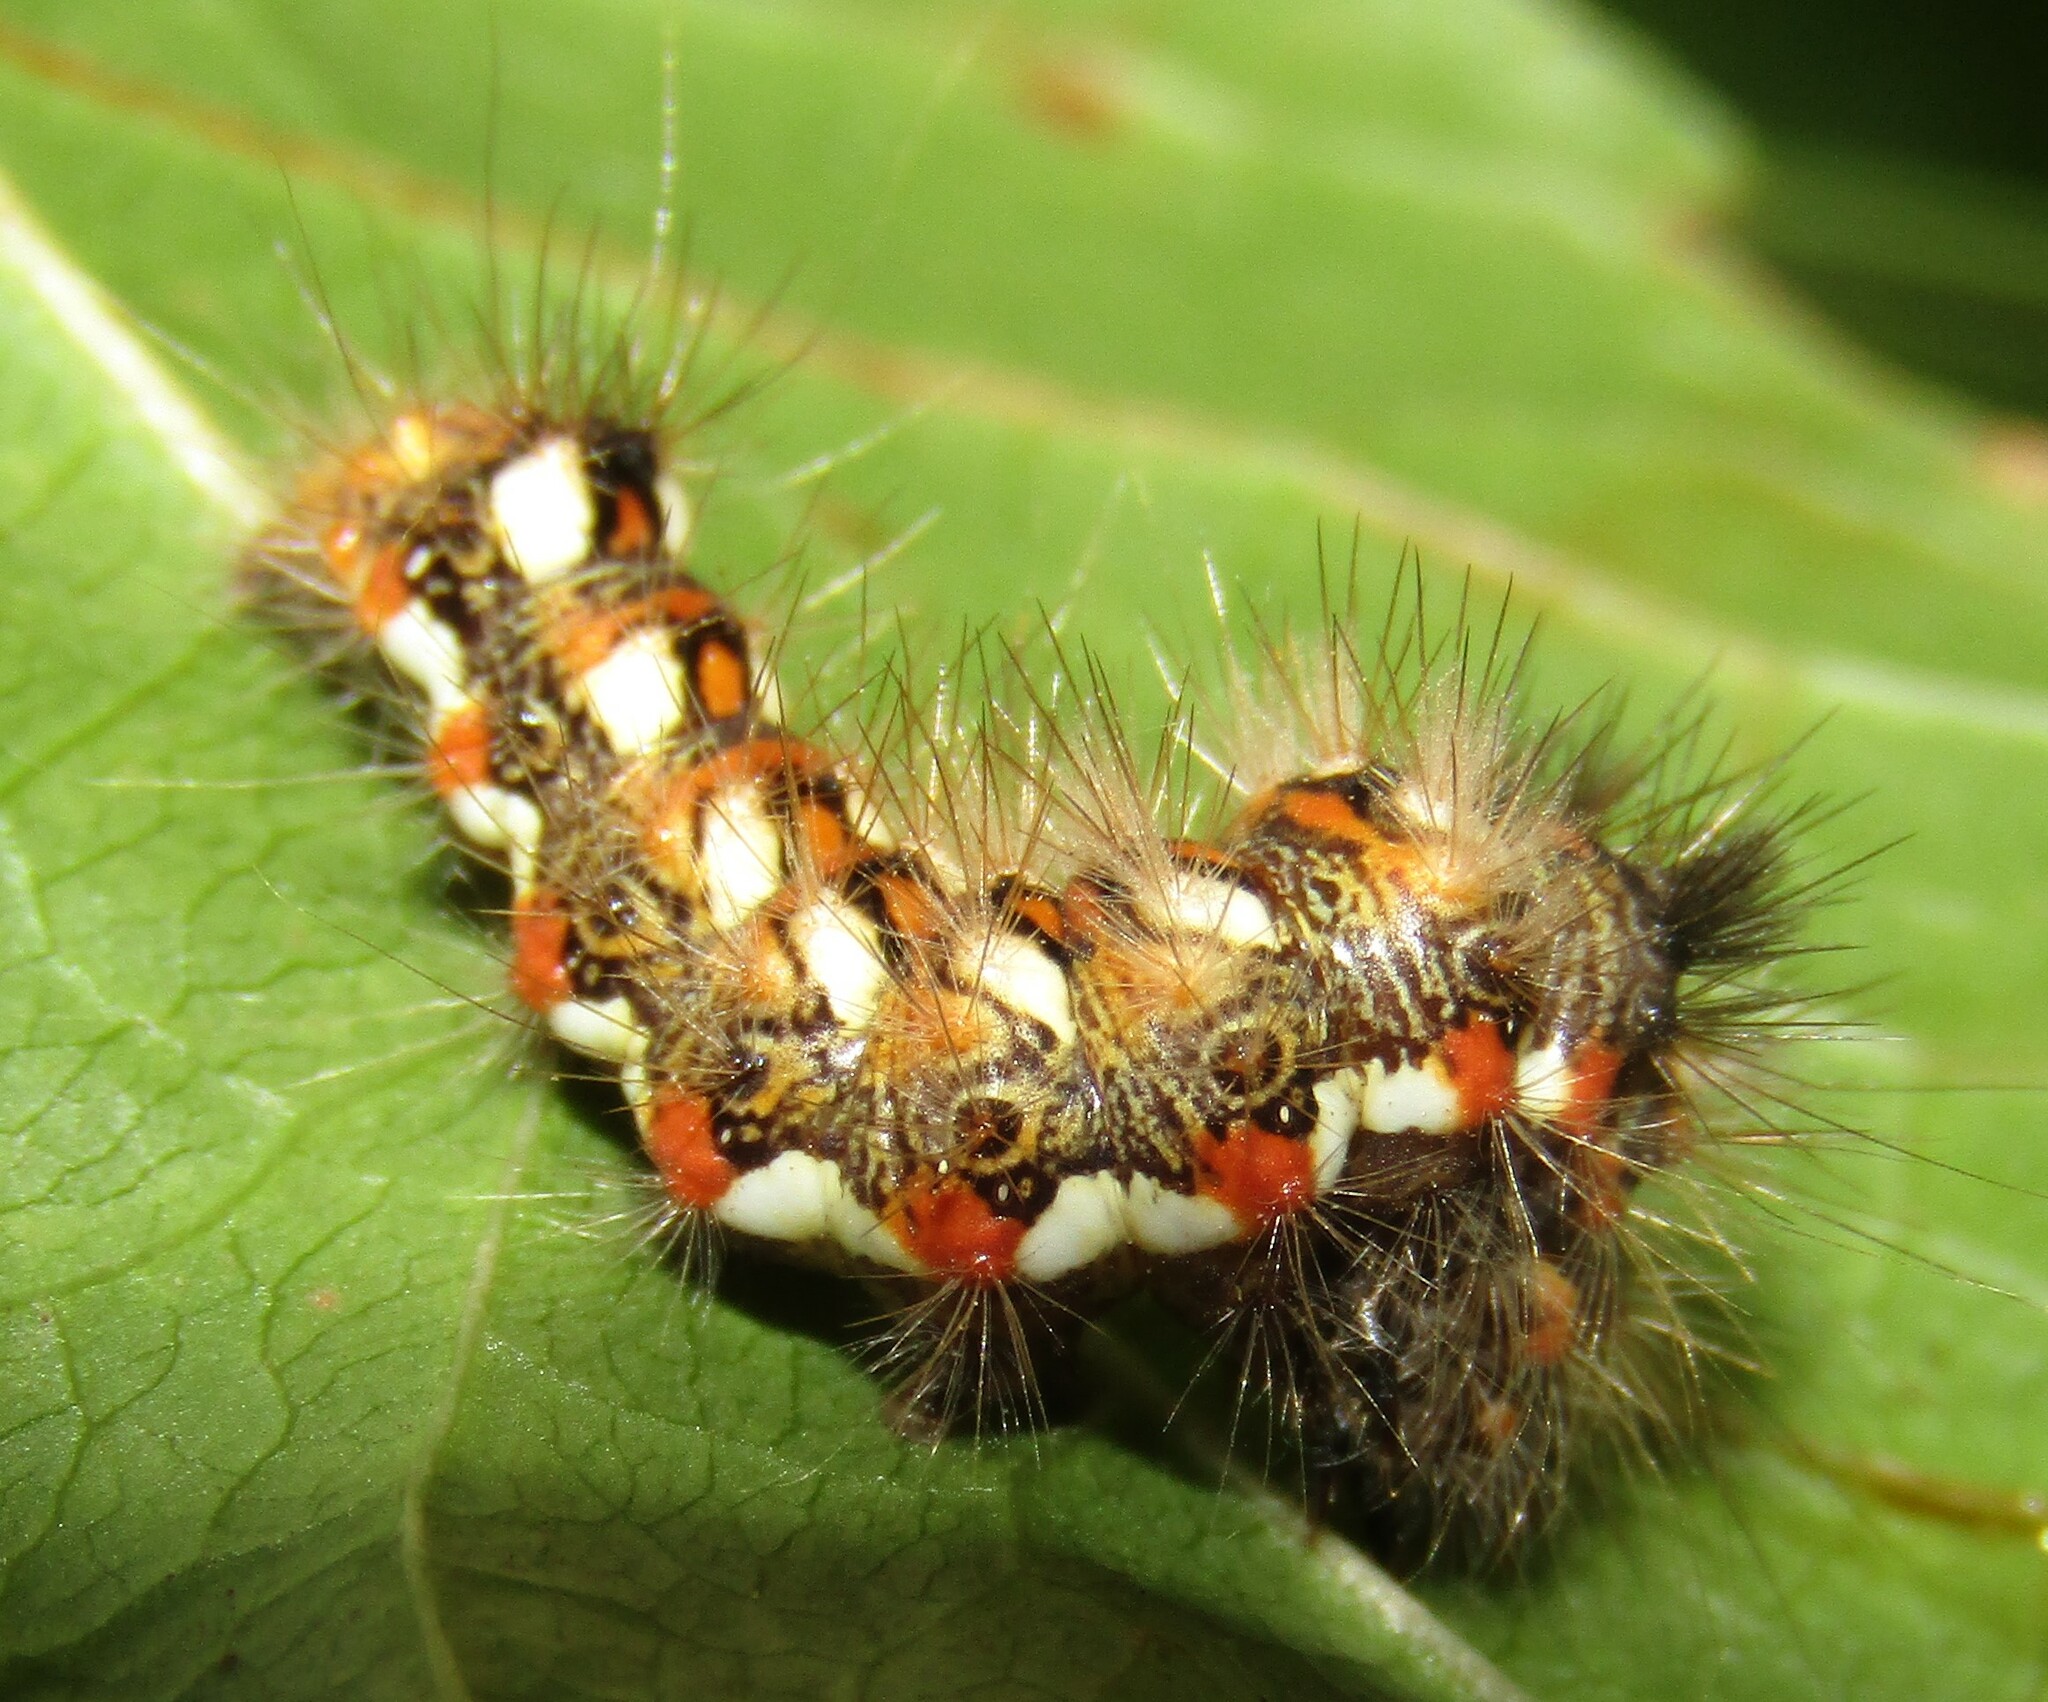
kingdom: Animalia
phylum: Arthropoda
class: Insecta
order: Lepidoptera
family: Noctuidae
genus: Acronicta
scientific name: Acronicta rumicis
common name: Knot grass
